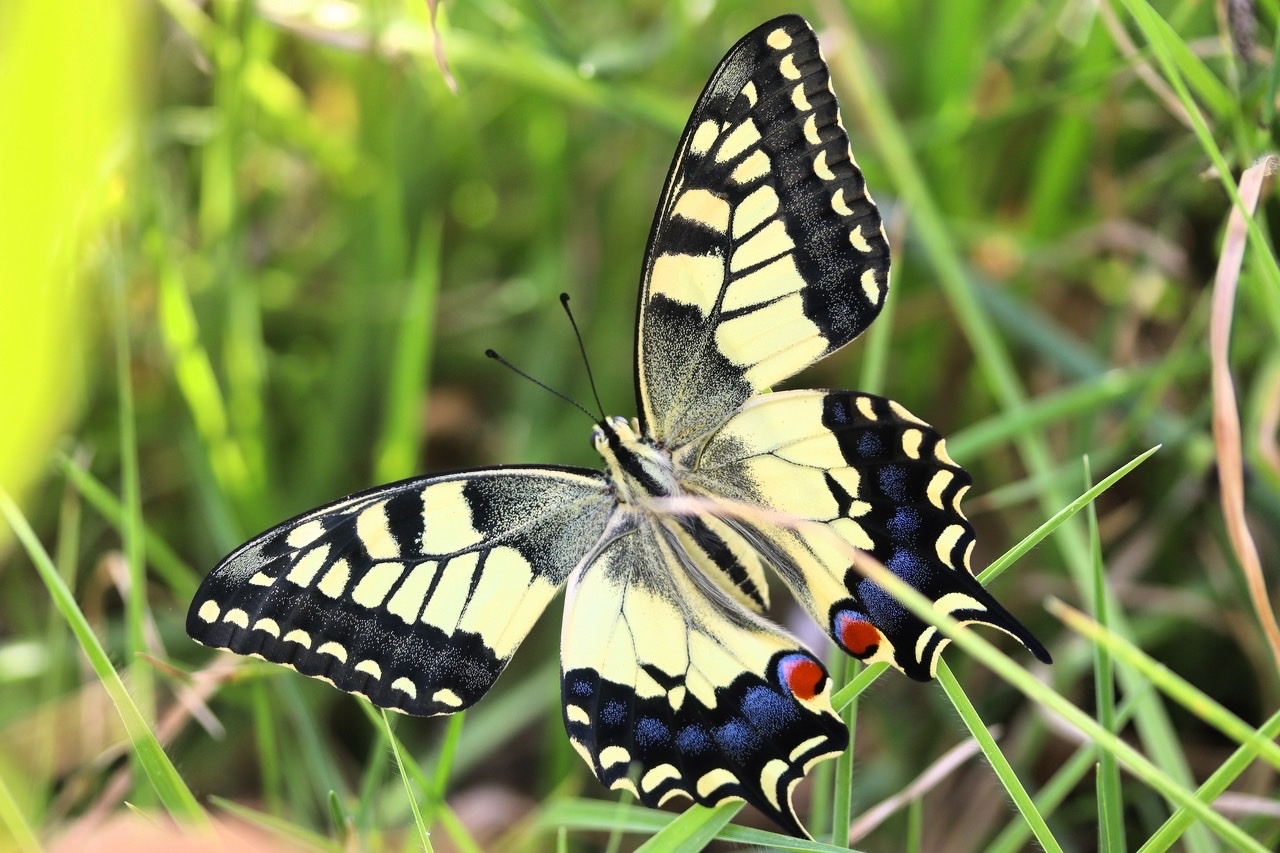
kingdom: Animalia
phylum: Arthropoda
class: Insecta
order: Lepidoptera
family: Papilionidae
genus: Papilio
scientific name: Papilio machaon
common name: Swallowtail
